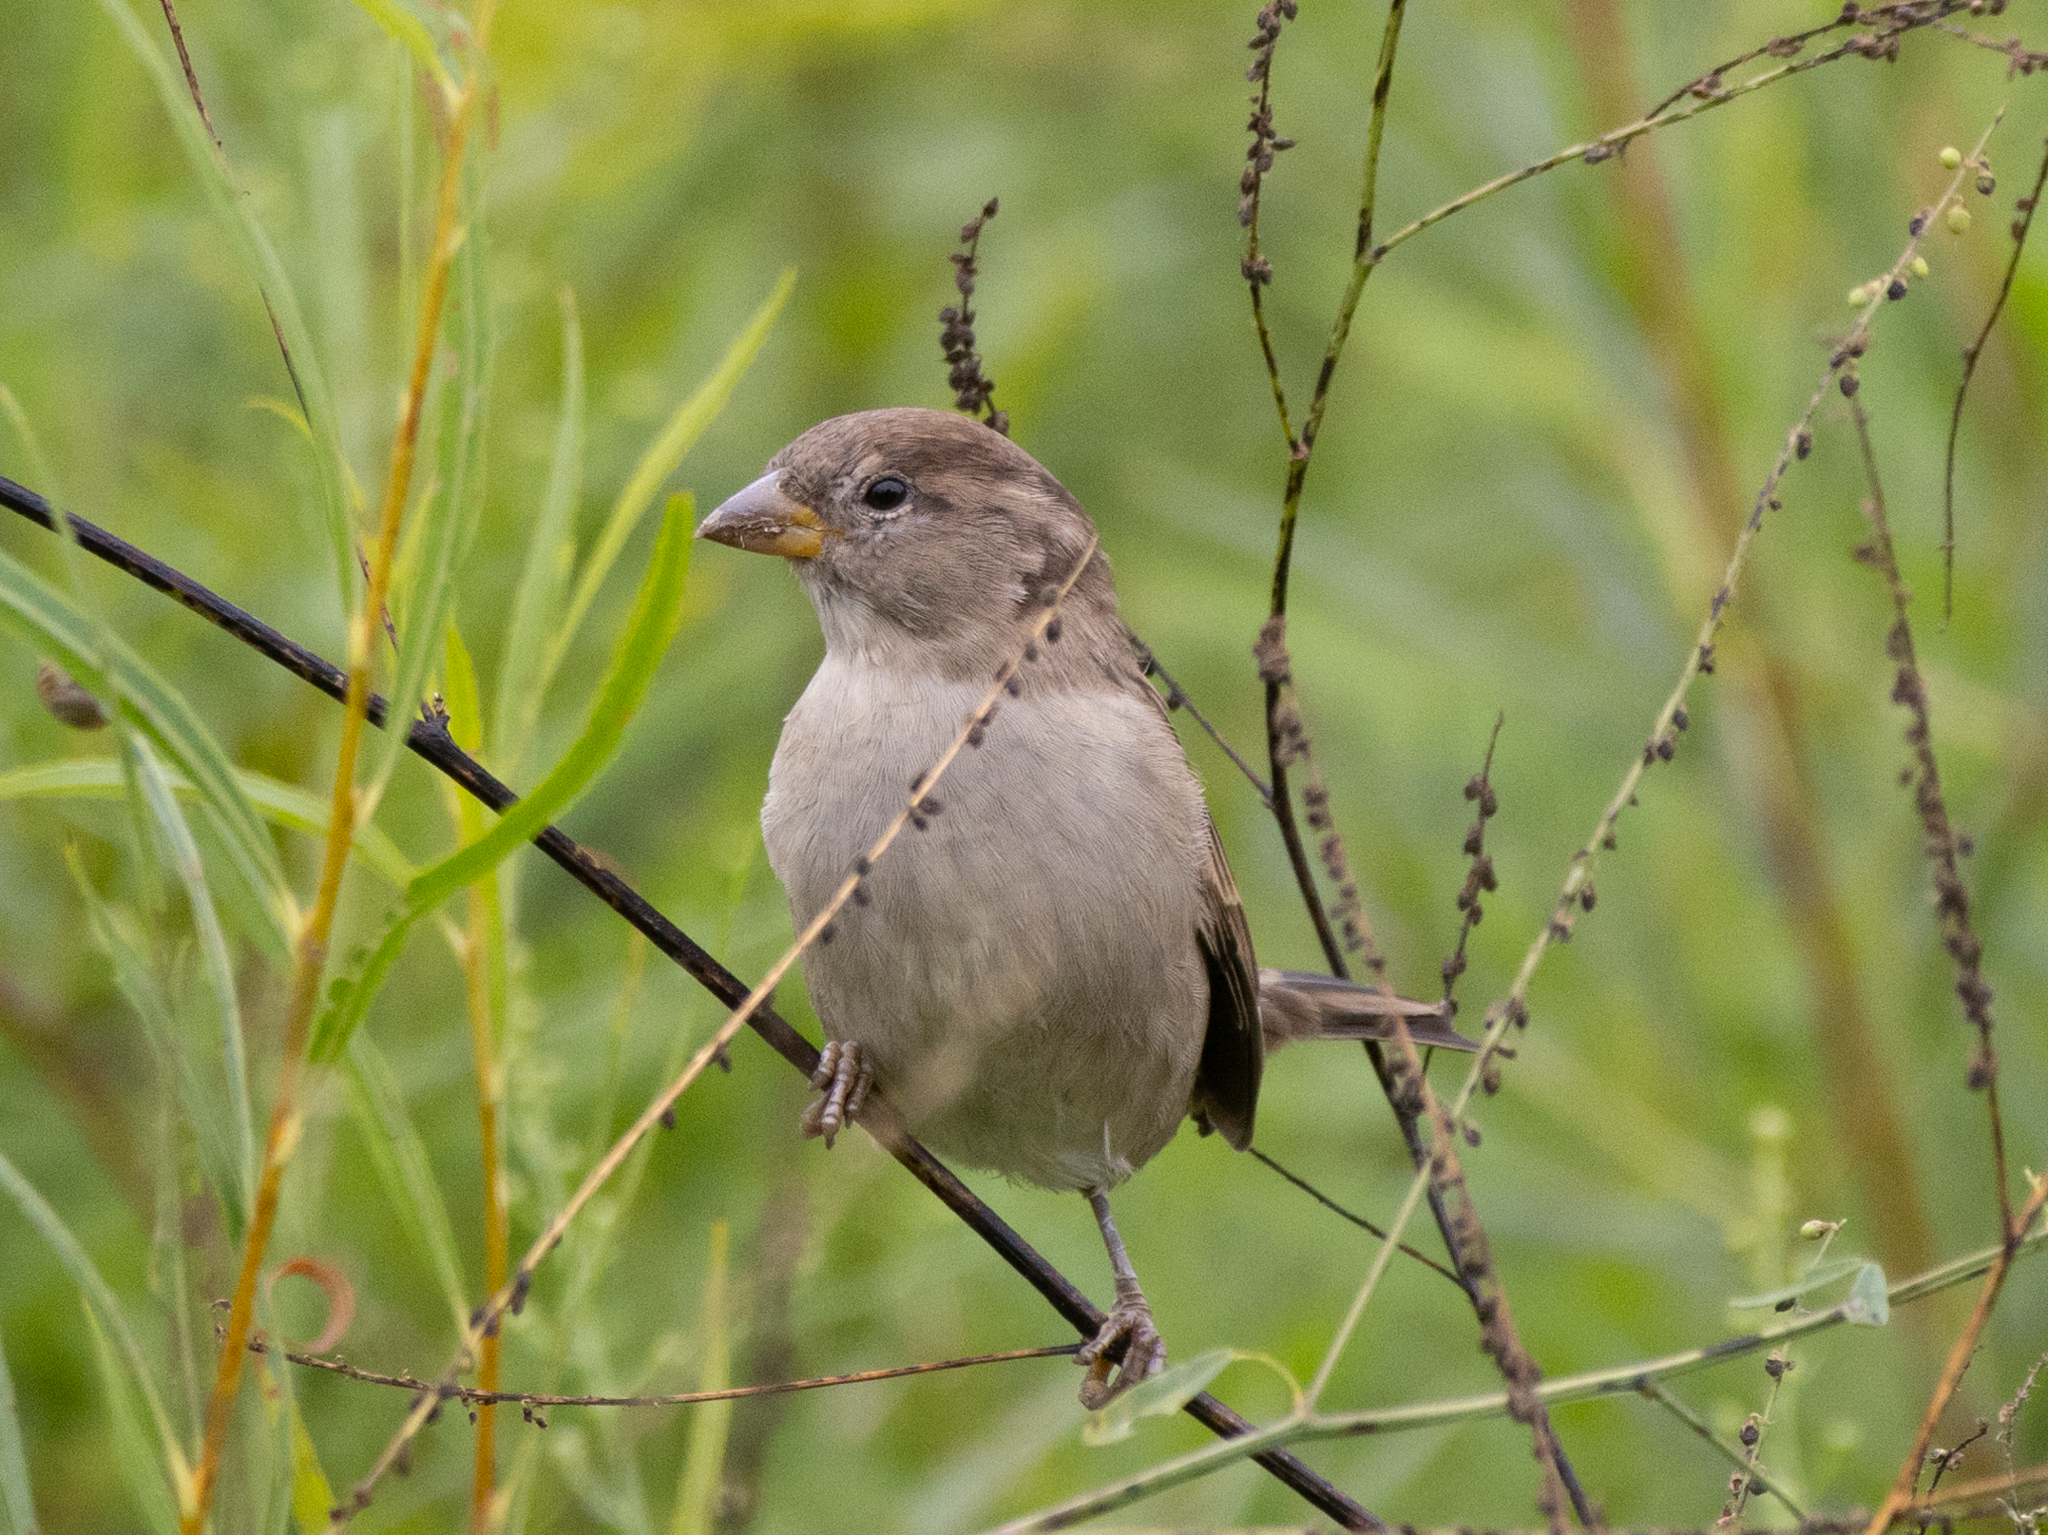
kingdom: Animalia
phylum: Chordata
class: Aves
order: Passeriformes
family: Passeridae
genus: Passer
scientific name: Passer domesticus
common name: House sparrow
